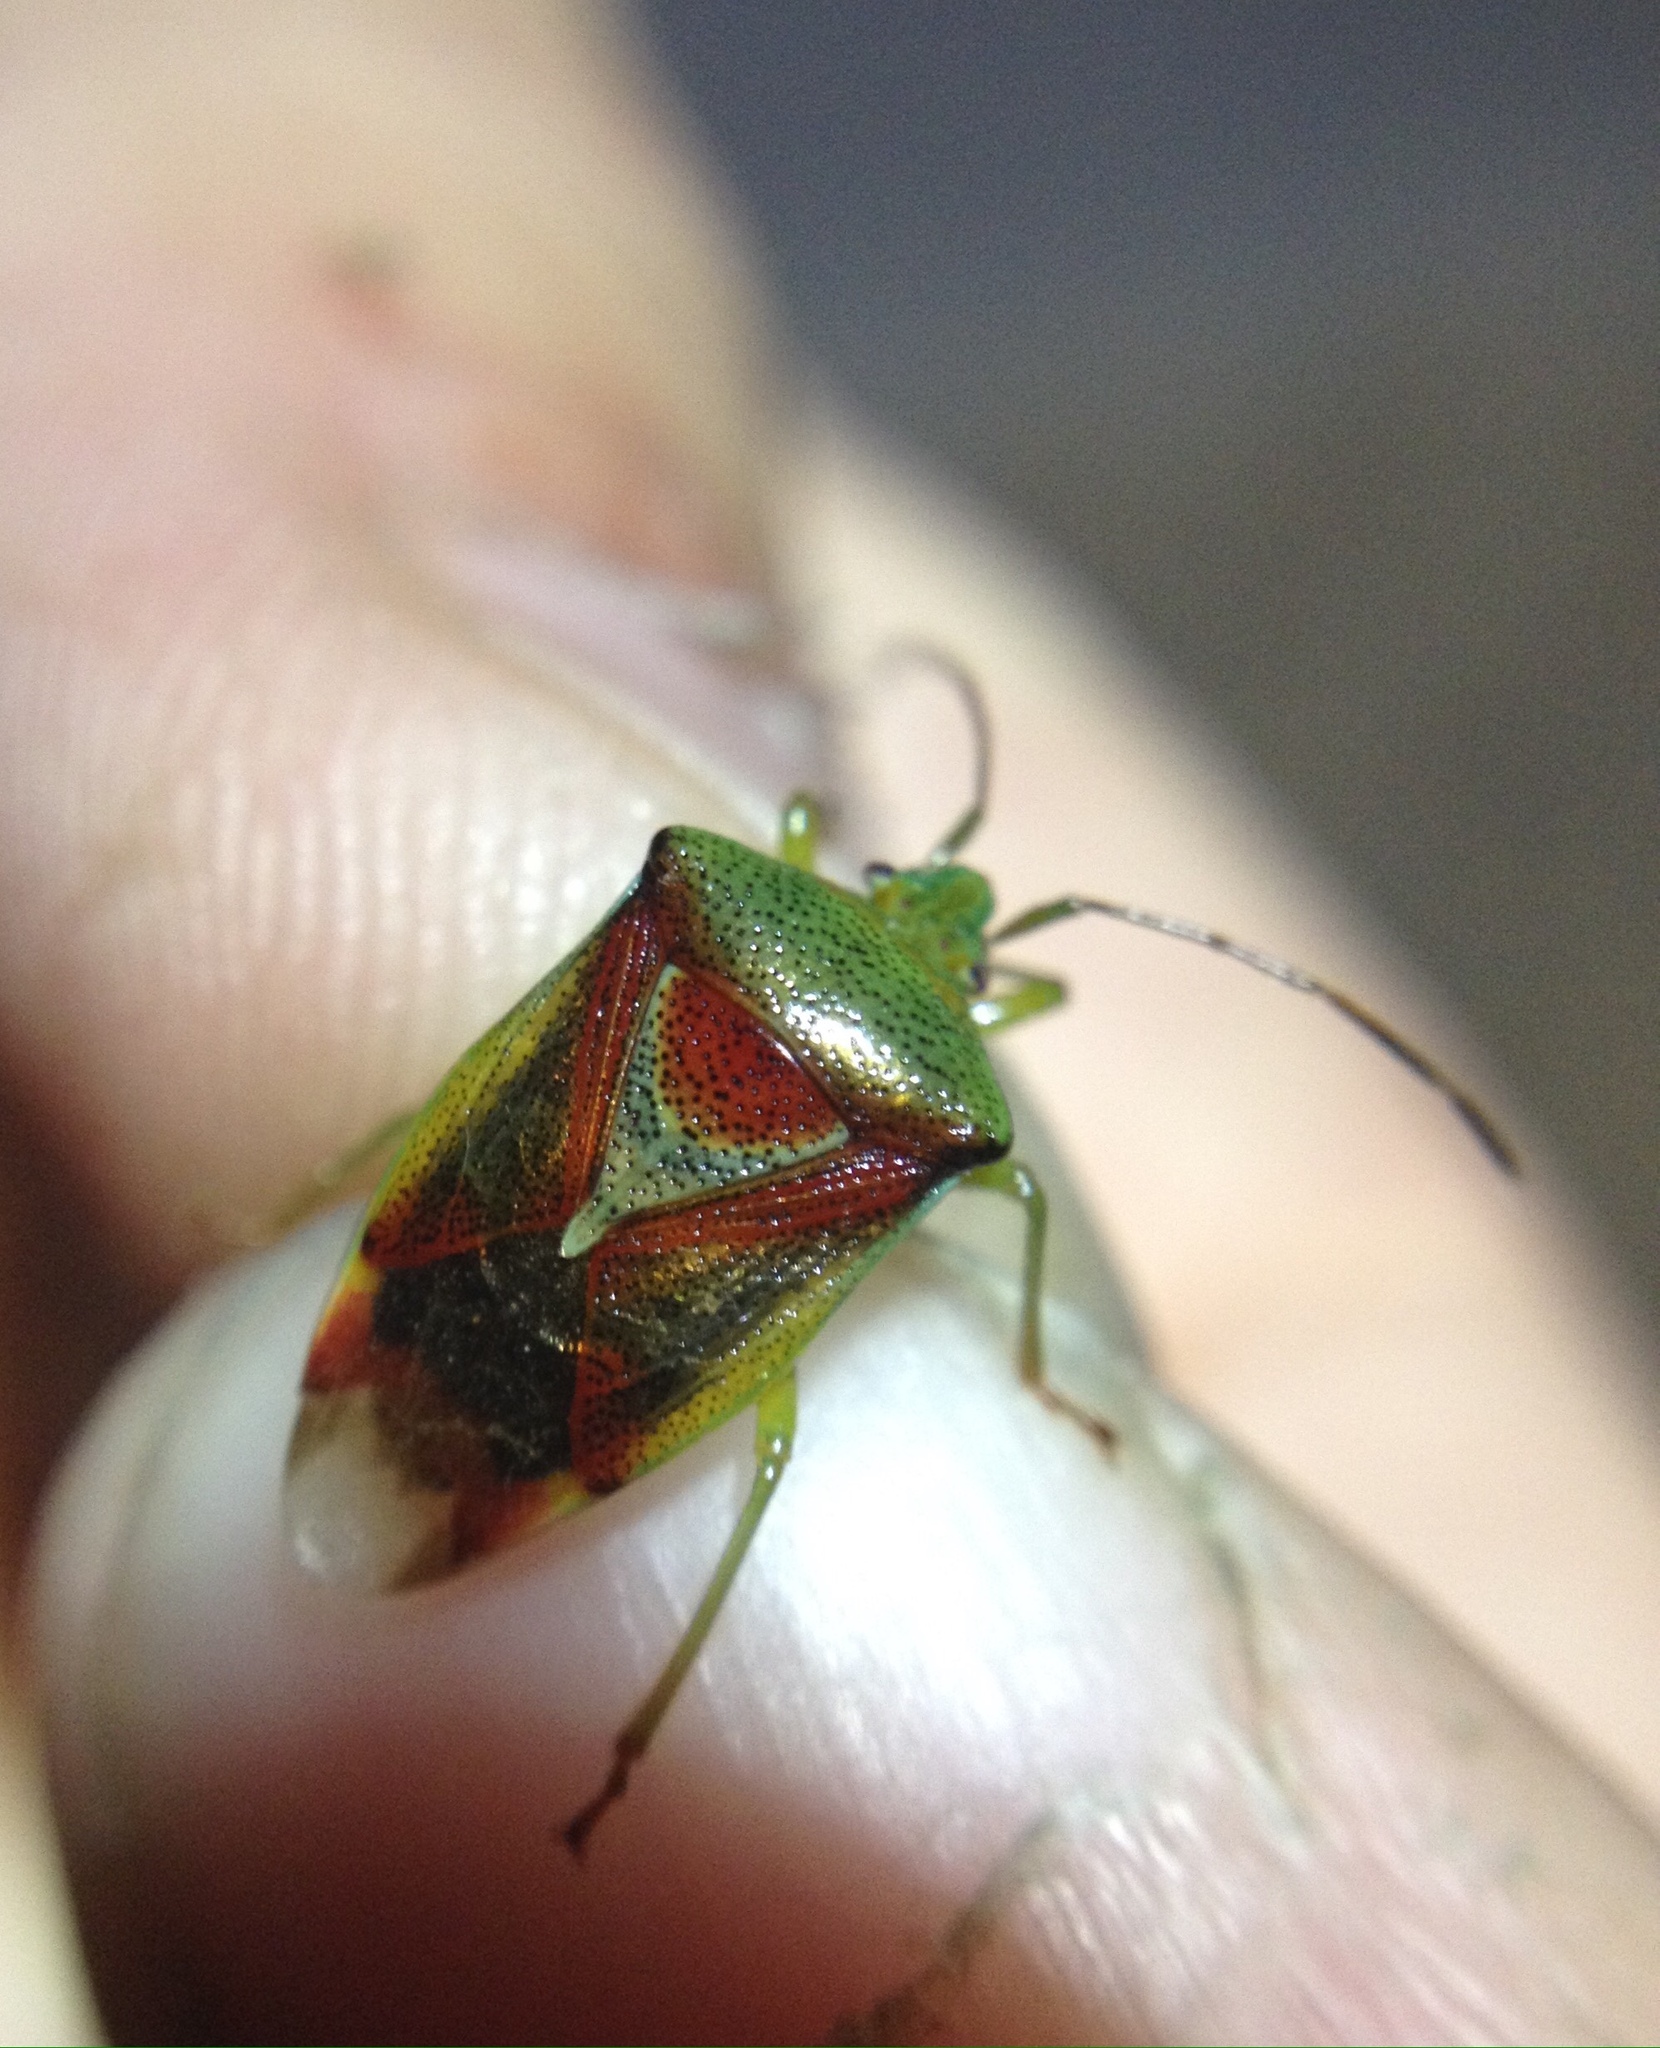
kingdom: Animalia
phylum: Arthropoda
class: Insecta
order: Hemiptera
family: Acanthosomatidae
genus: Elasmostethus
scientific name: Elasmostethus interstinctus
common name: Birch shieldbug
